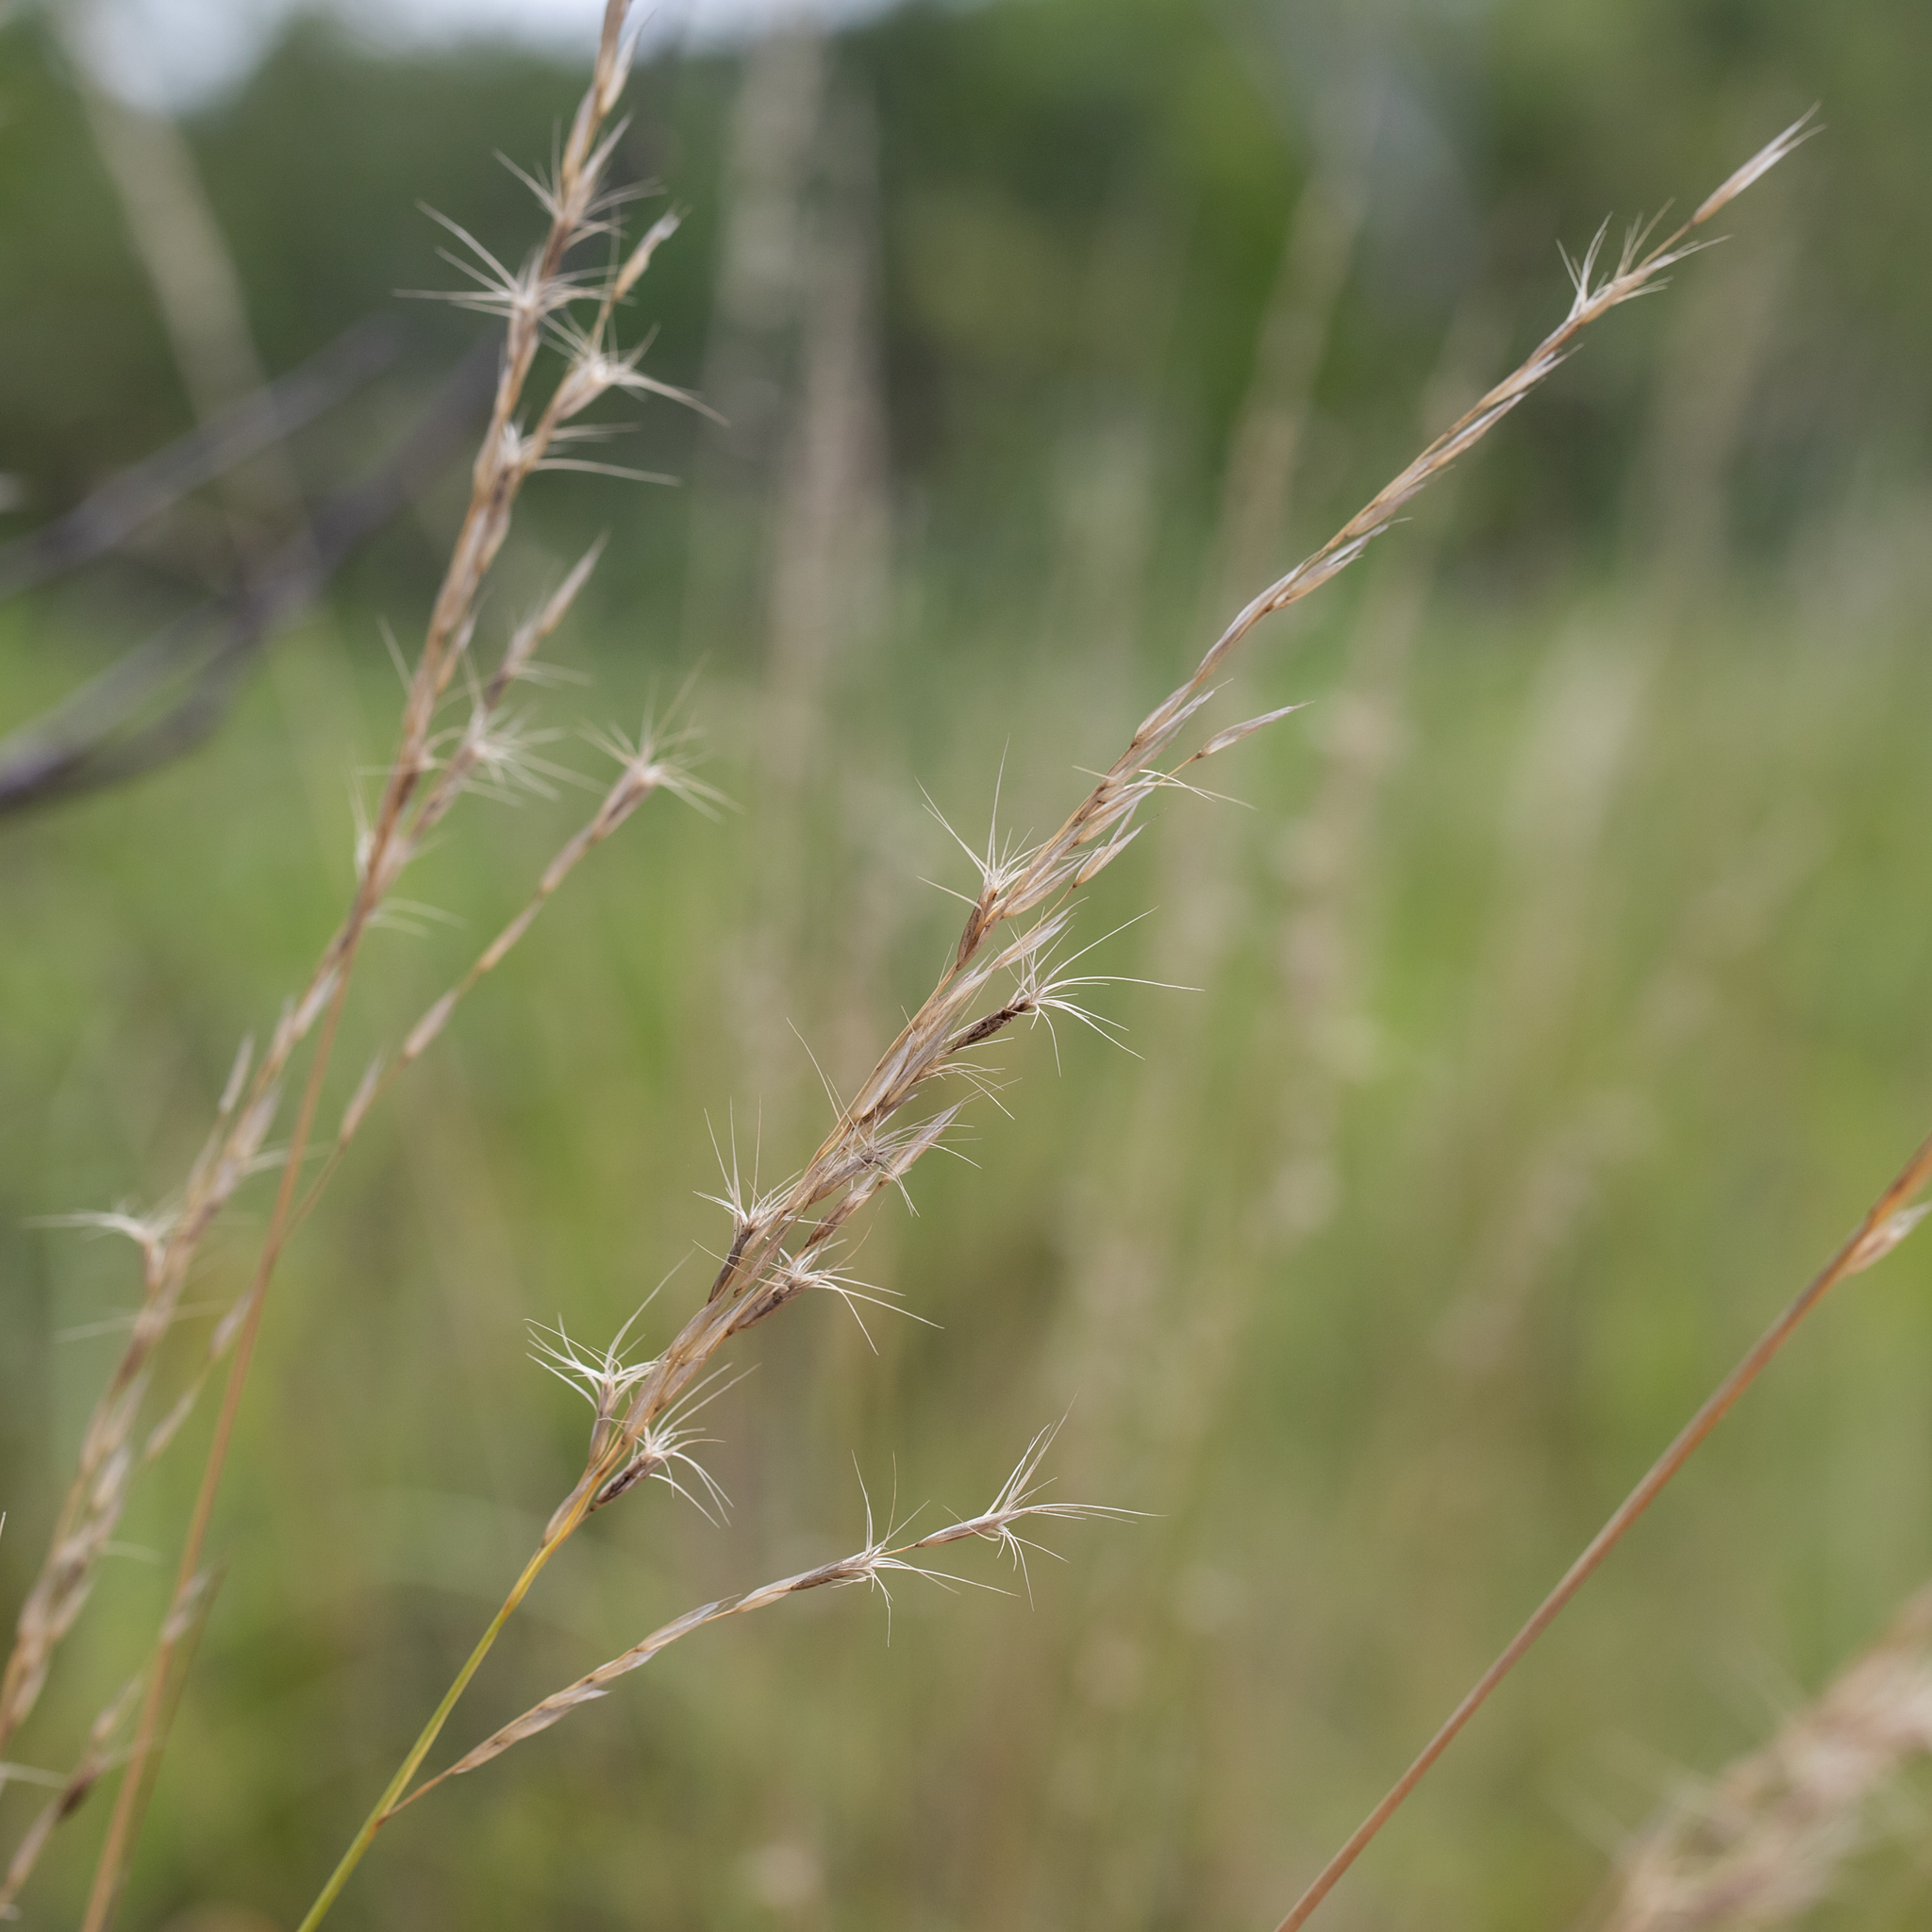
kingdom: Plantae
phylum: Tracheophyta
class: Liliopsida
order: Poales
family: Poaceae
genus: Triodia
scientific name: Triodia bitextura
